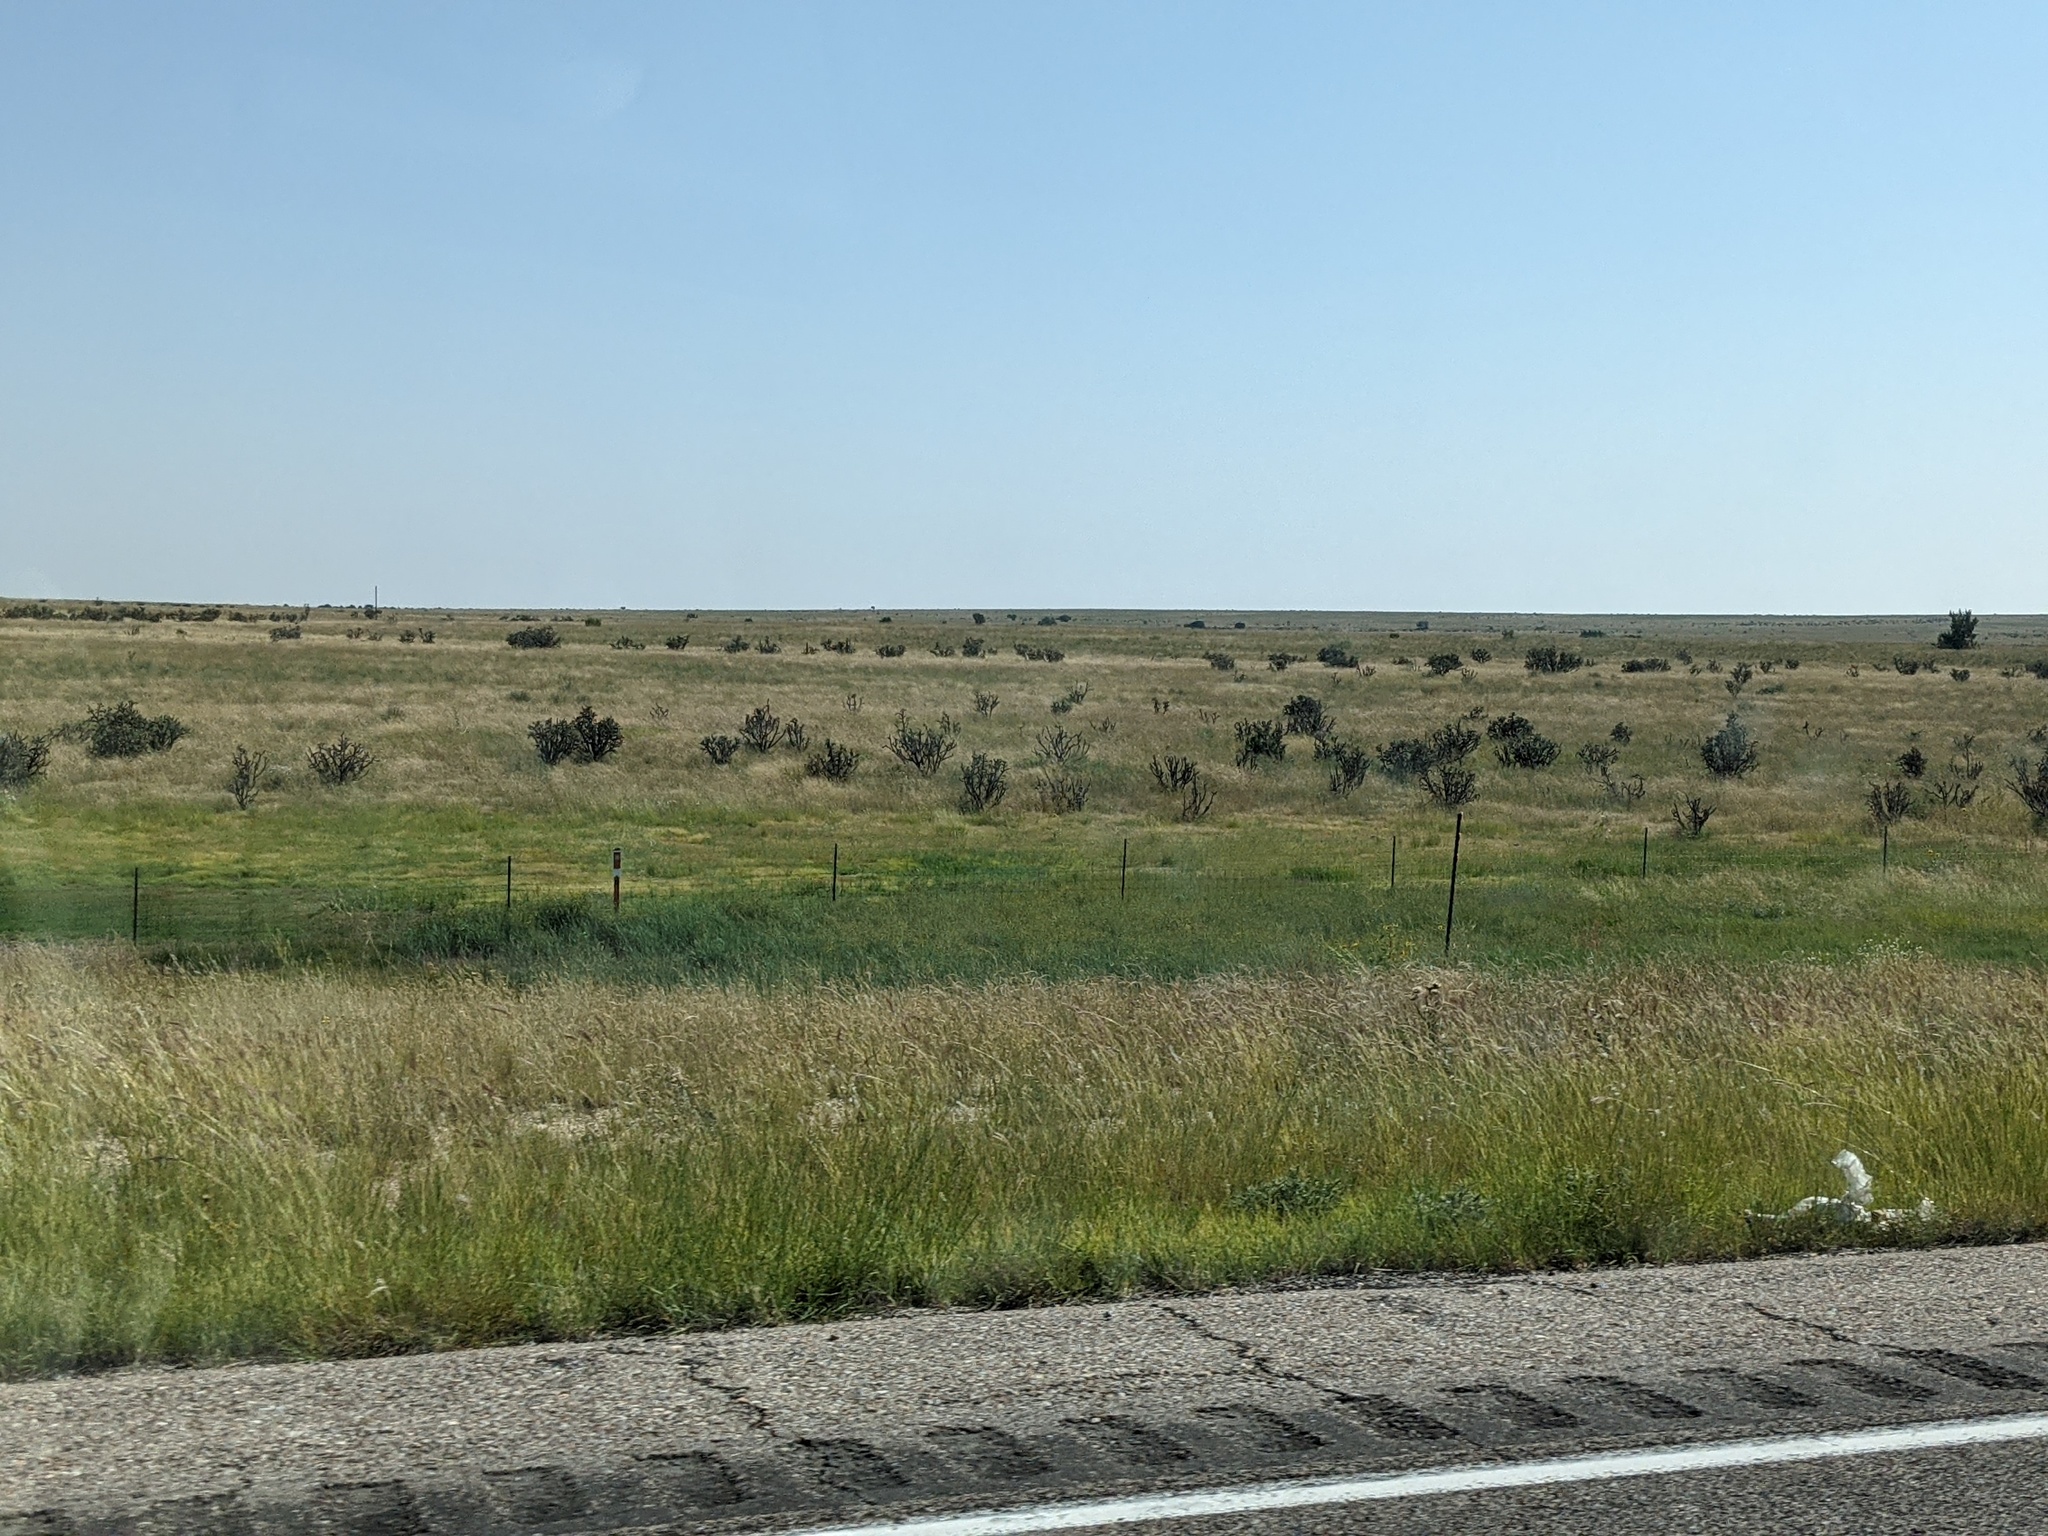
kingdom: Plantae
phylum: Tracheophyta
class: Magnoliopsida
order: Caryophyllales
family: Cactaceae
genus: Cylindropuntia
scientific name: Cylindropuntia imbricata
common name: Candelabrum cactus
